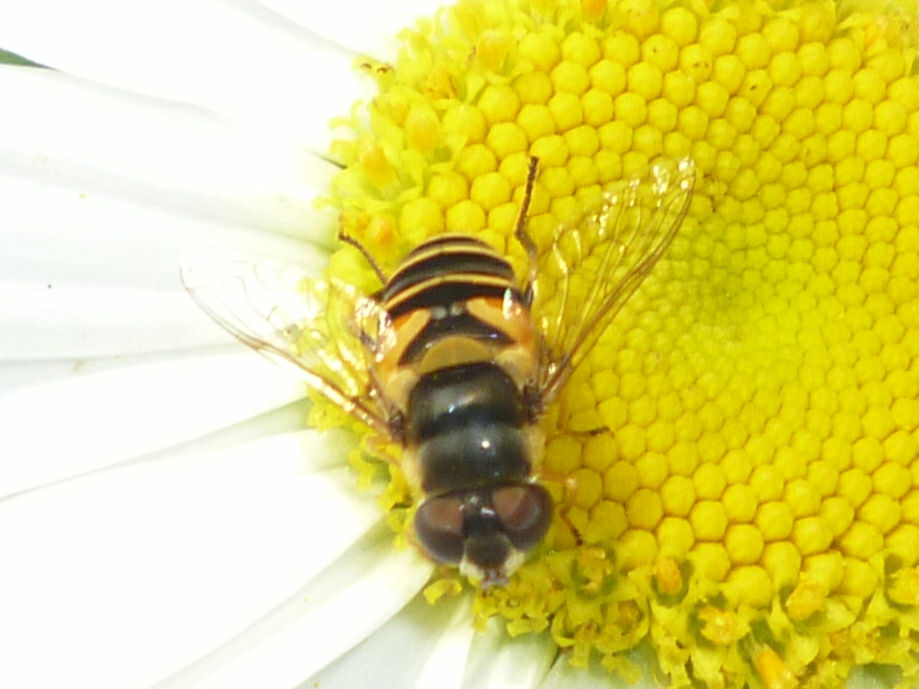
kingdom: Animalia
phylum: Arthropoda
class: Insecta
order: Diptera
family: Syrphidae
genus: Eristalis
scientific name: Eristalis transversa
